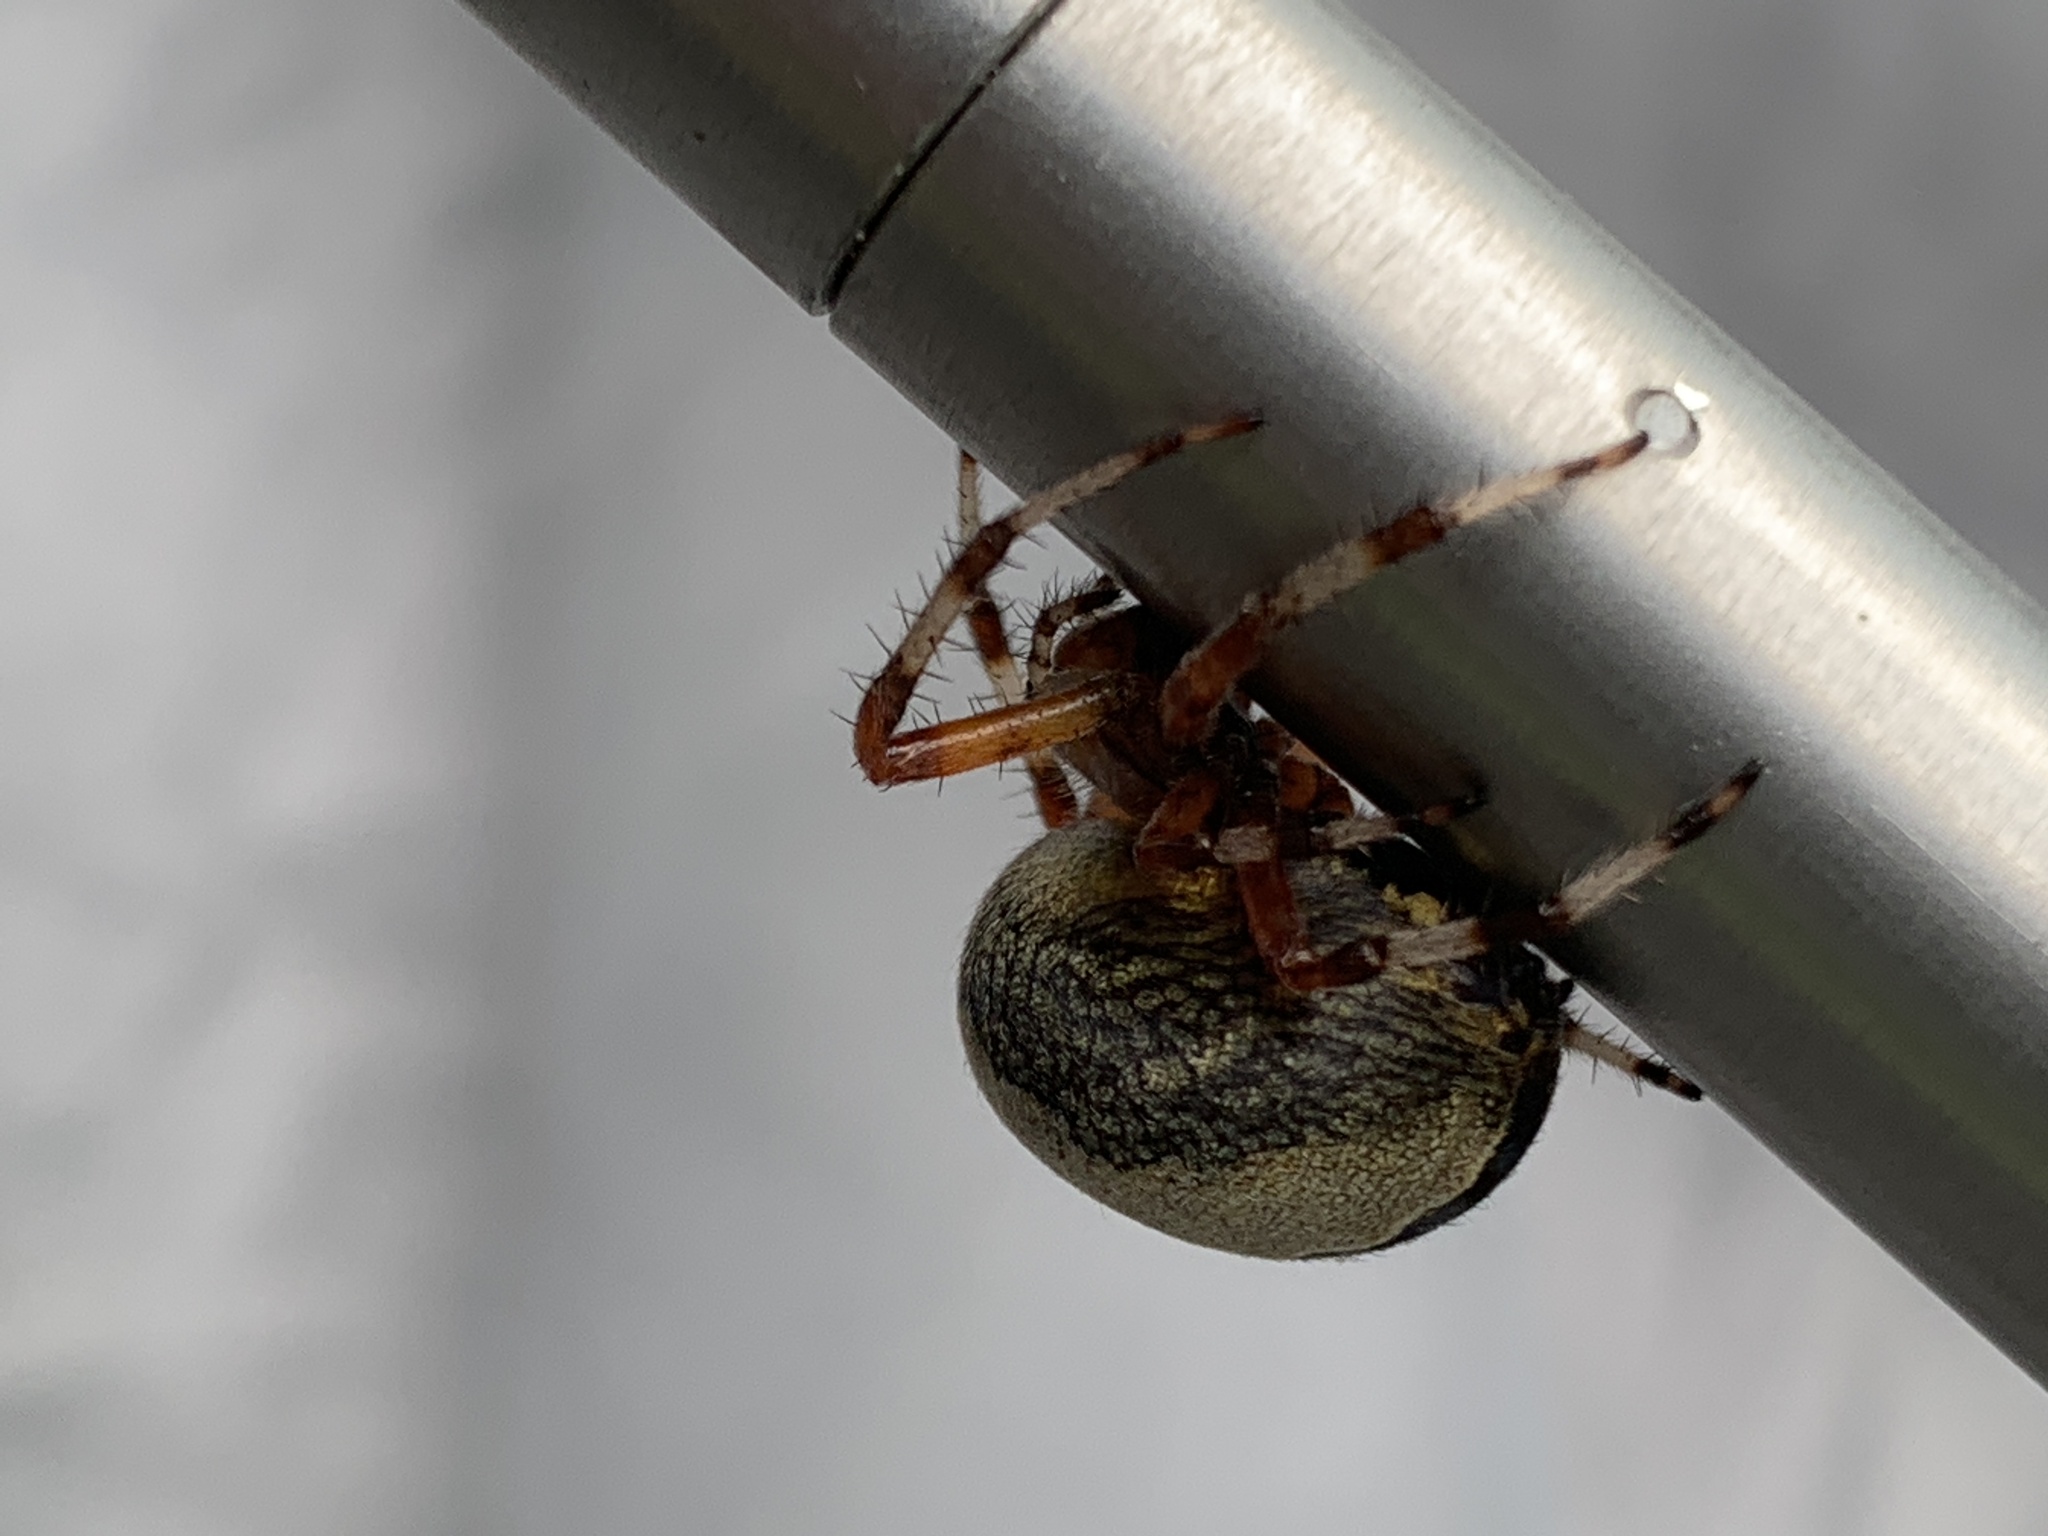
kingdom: Animalia
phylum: Arthropoda
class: Arachnida
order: Araneae
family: Araneidae
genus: Araneus
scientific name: Araneus marmoreus
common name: Marbled orbweaver
